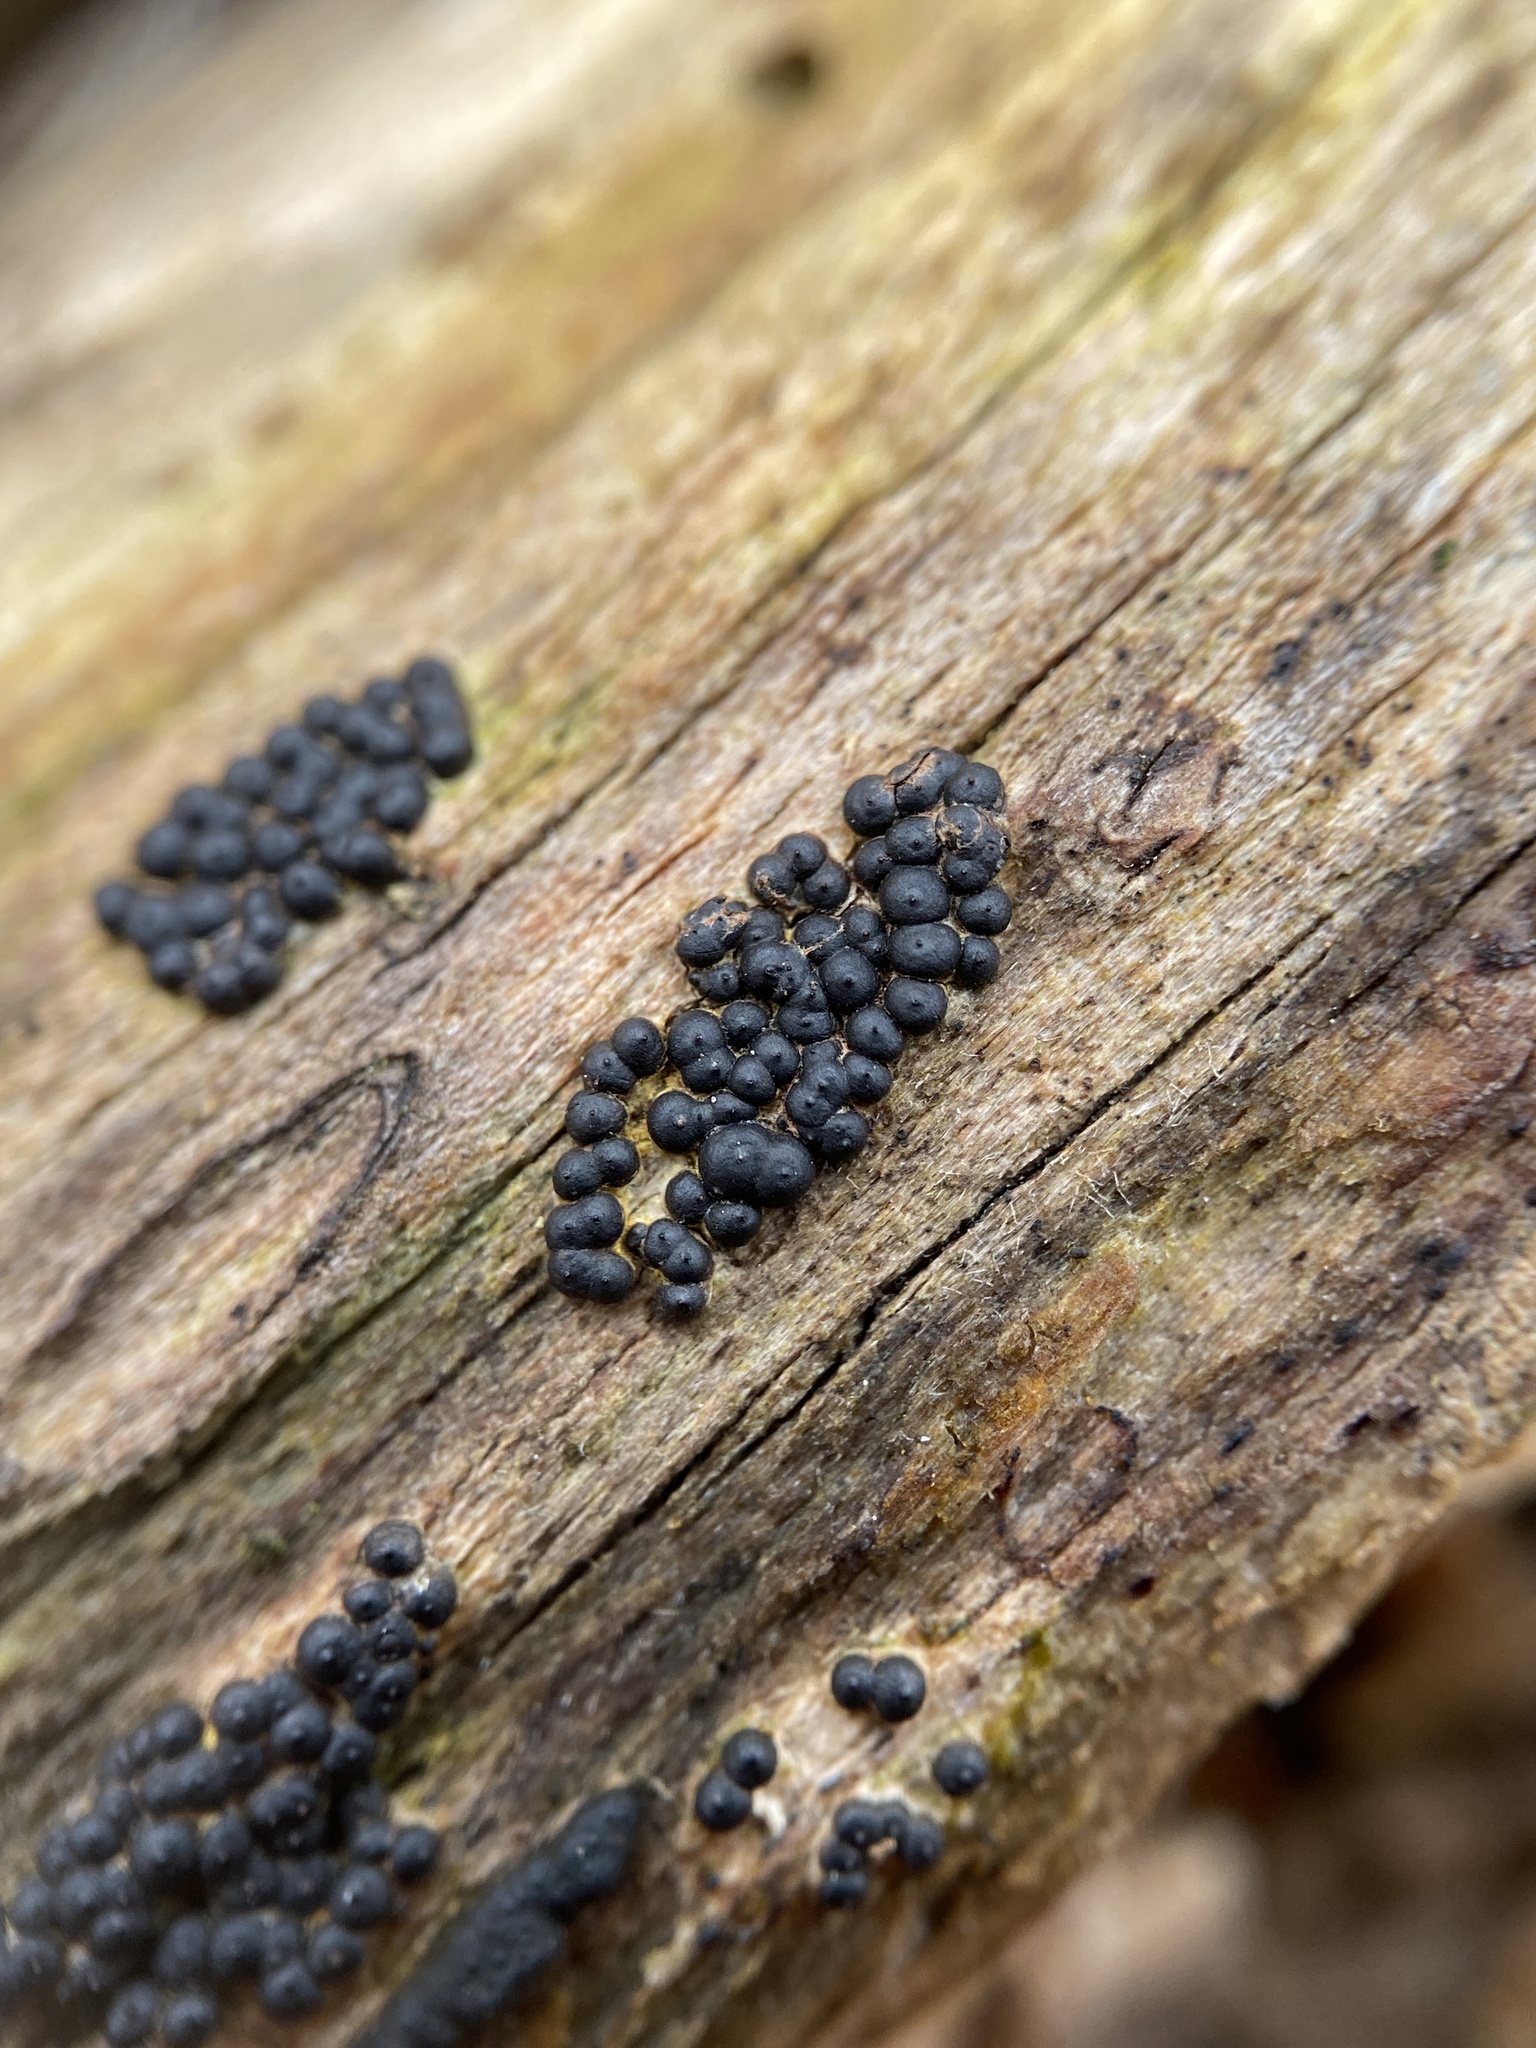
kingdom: Fungi
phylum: Ascomycota
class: Sordariomycetes
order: Xylariales
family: Xylariaceae
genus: Rosellinia
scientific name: Rosellinia subiculata
